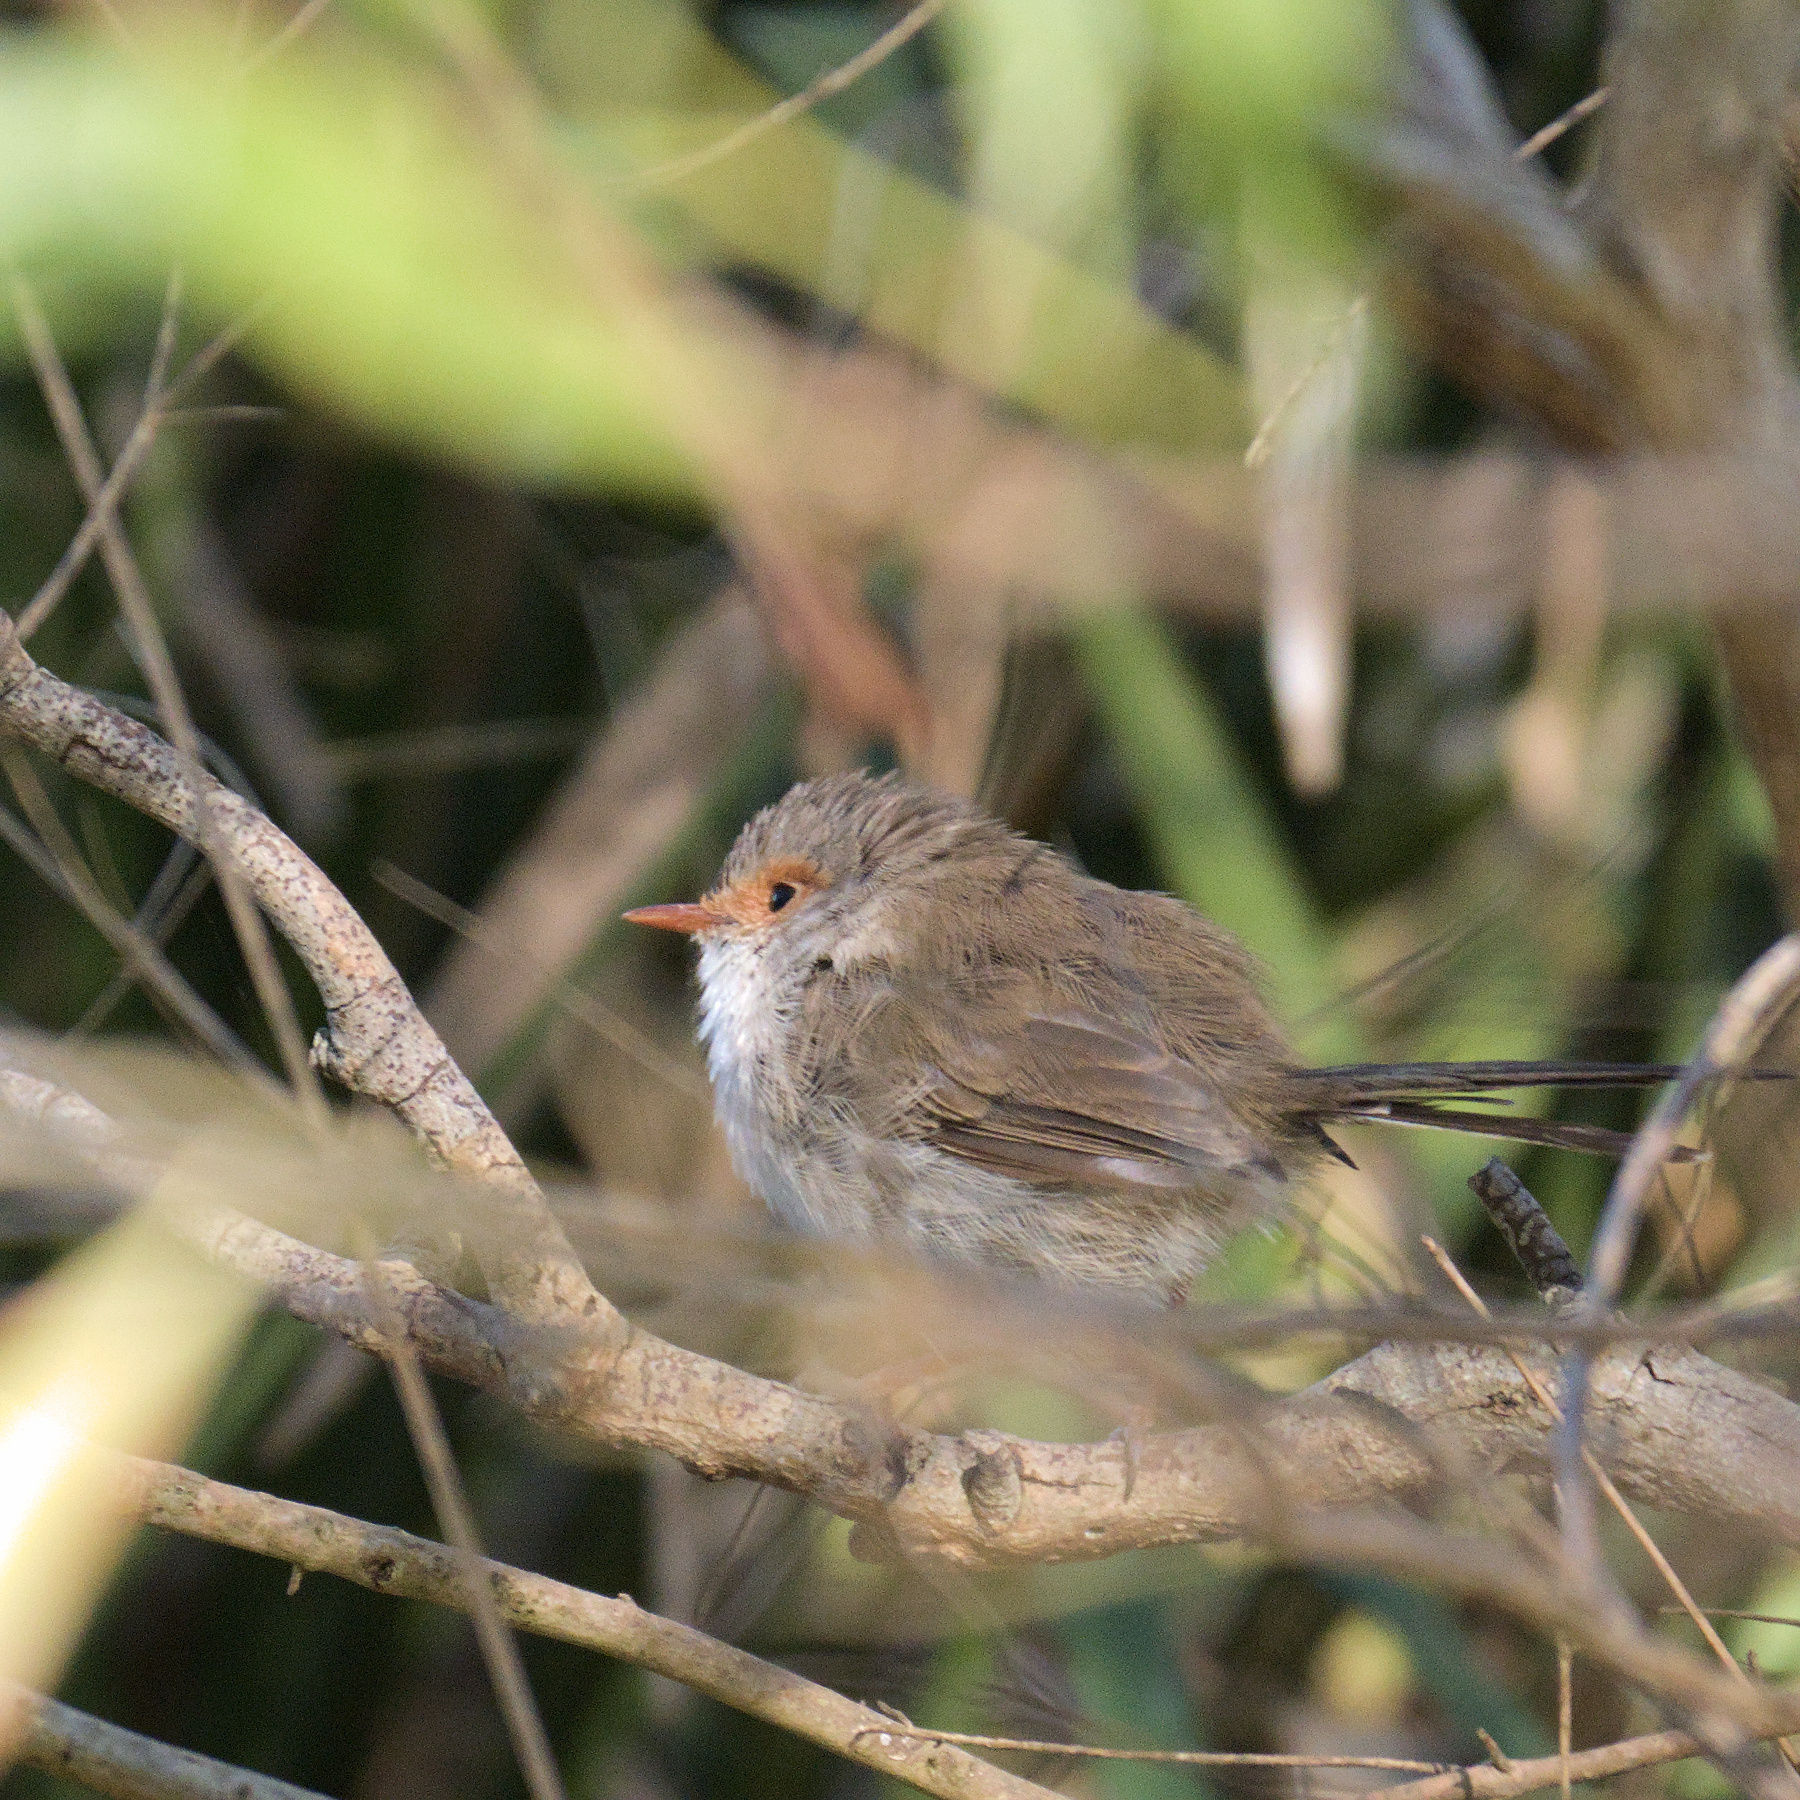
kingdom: Animalia
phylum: Chordata
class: Aves
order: Passeriformes
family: Maluridae
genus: Malurus
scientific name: Malurus cyaneus
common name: Superb fairywren
